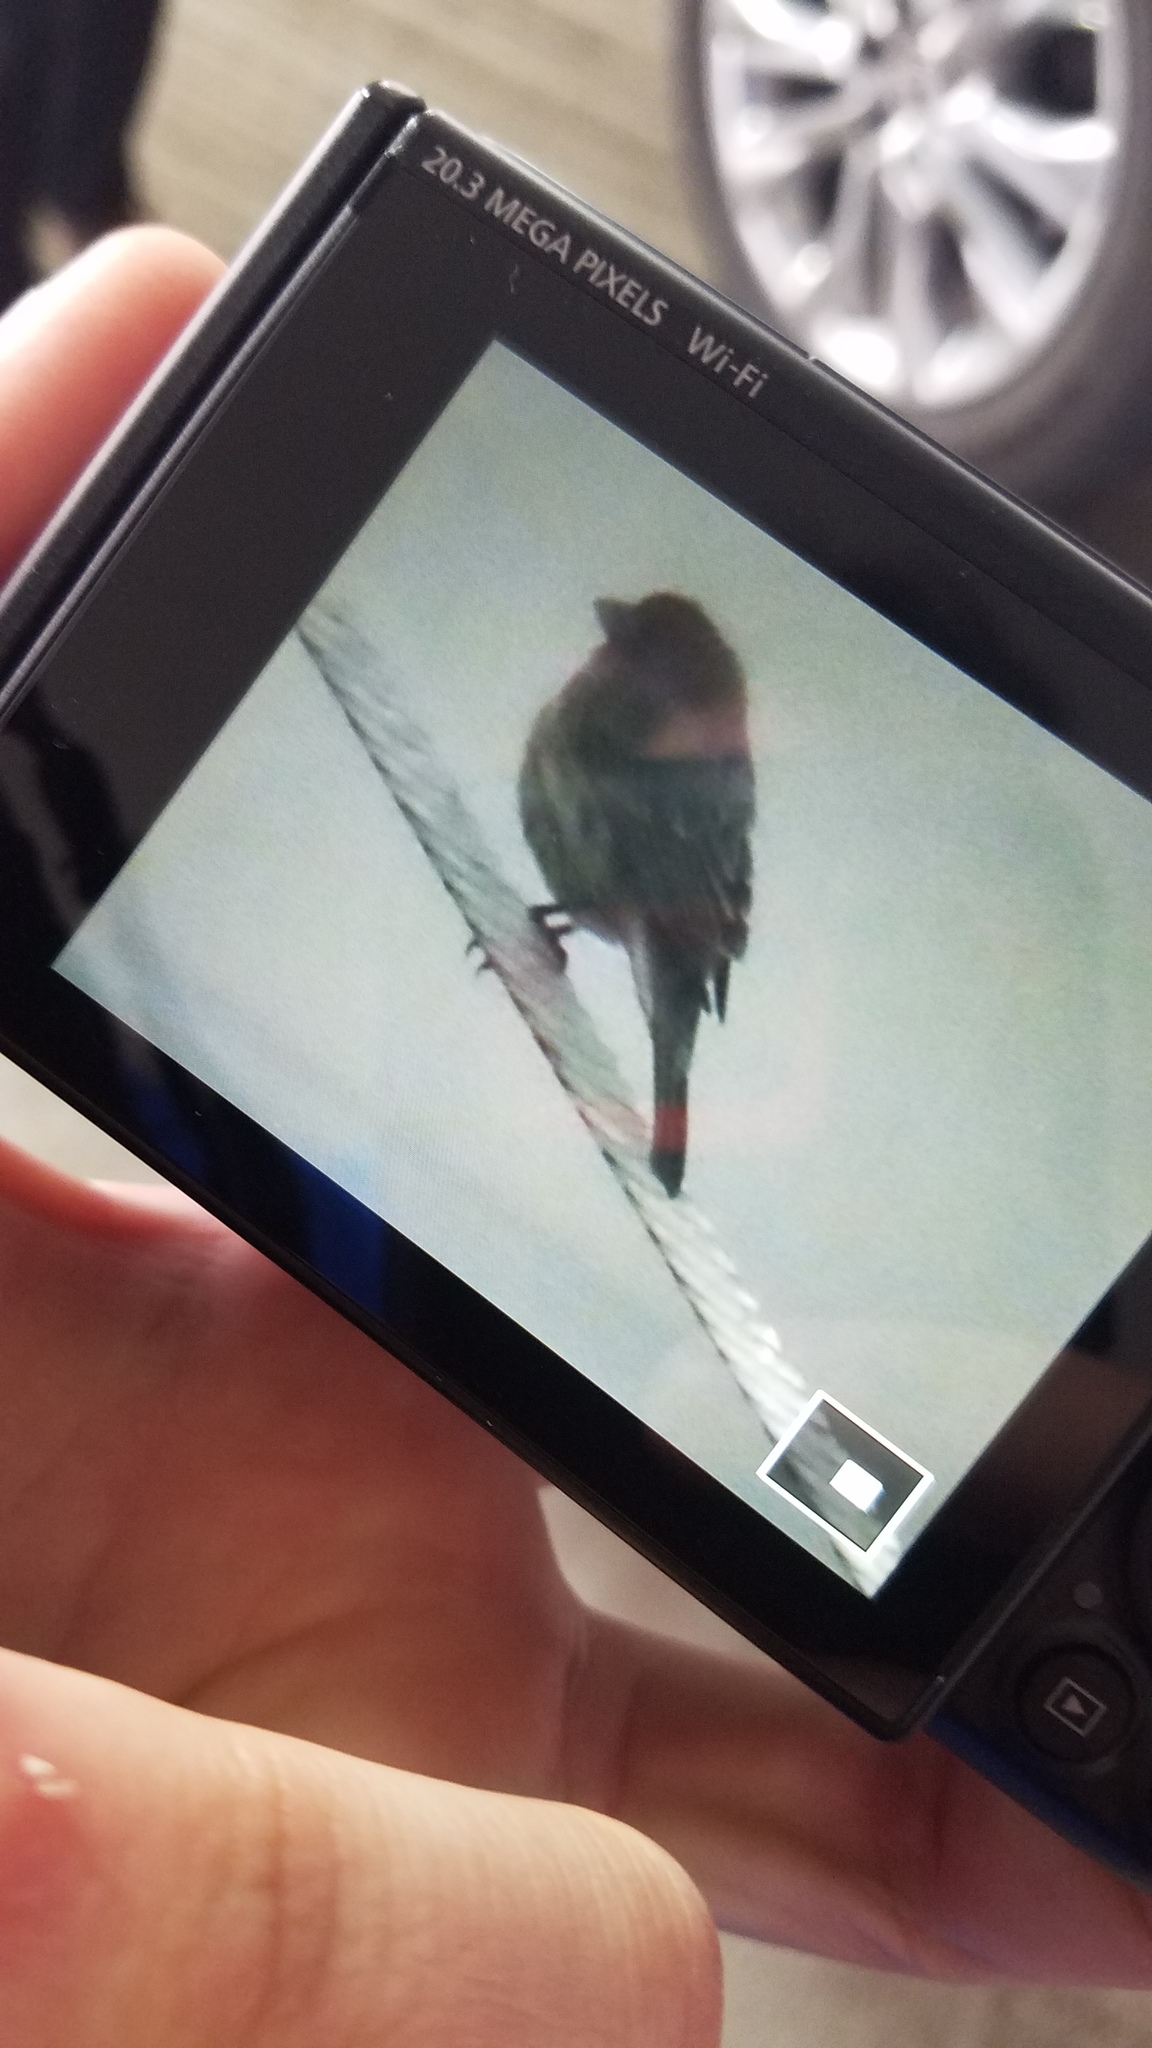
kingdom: Animalia
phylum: Chordata
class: Aves
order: Passeriformes
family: Fringillidae
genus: Haemorhous
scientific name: Haemorhous mexicanus
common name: House finch
